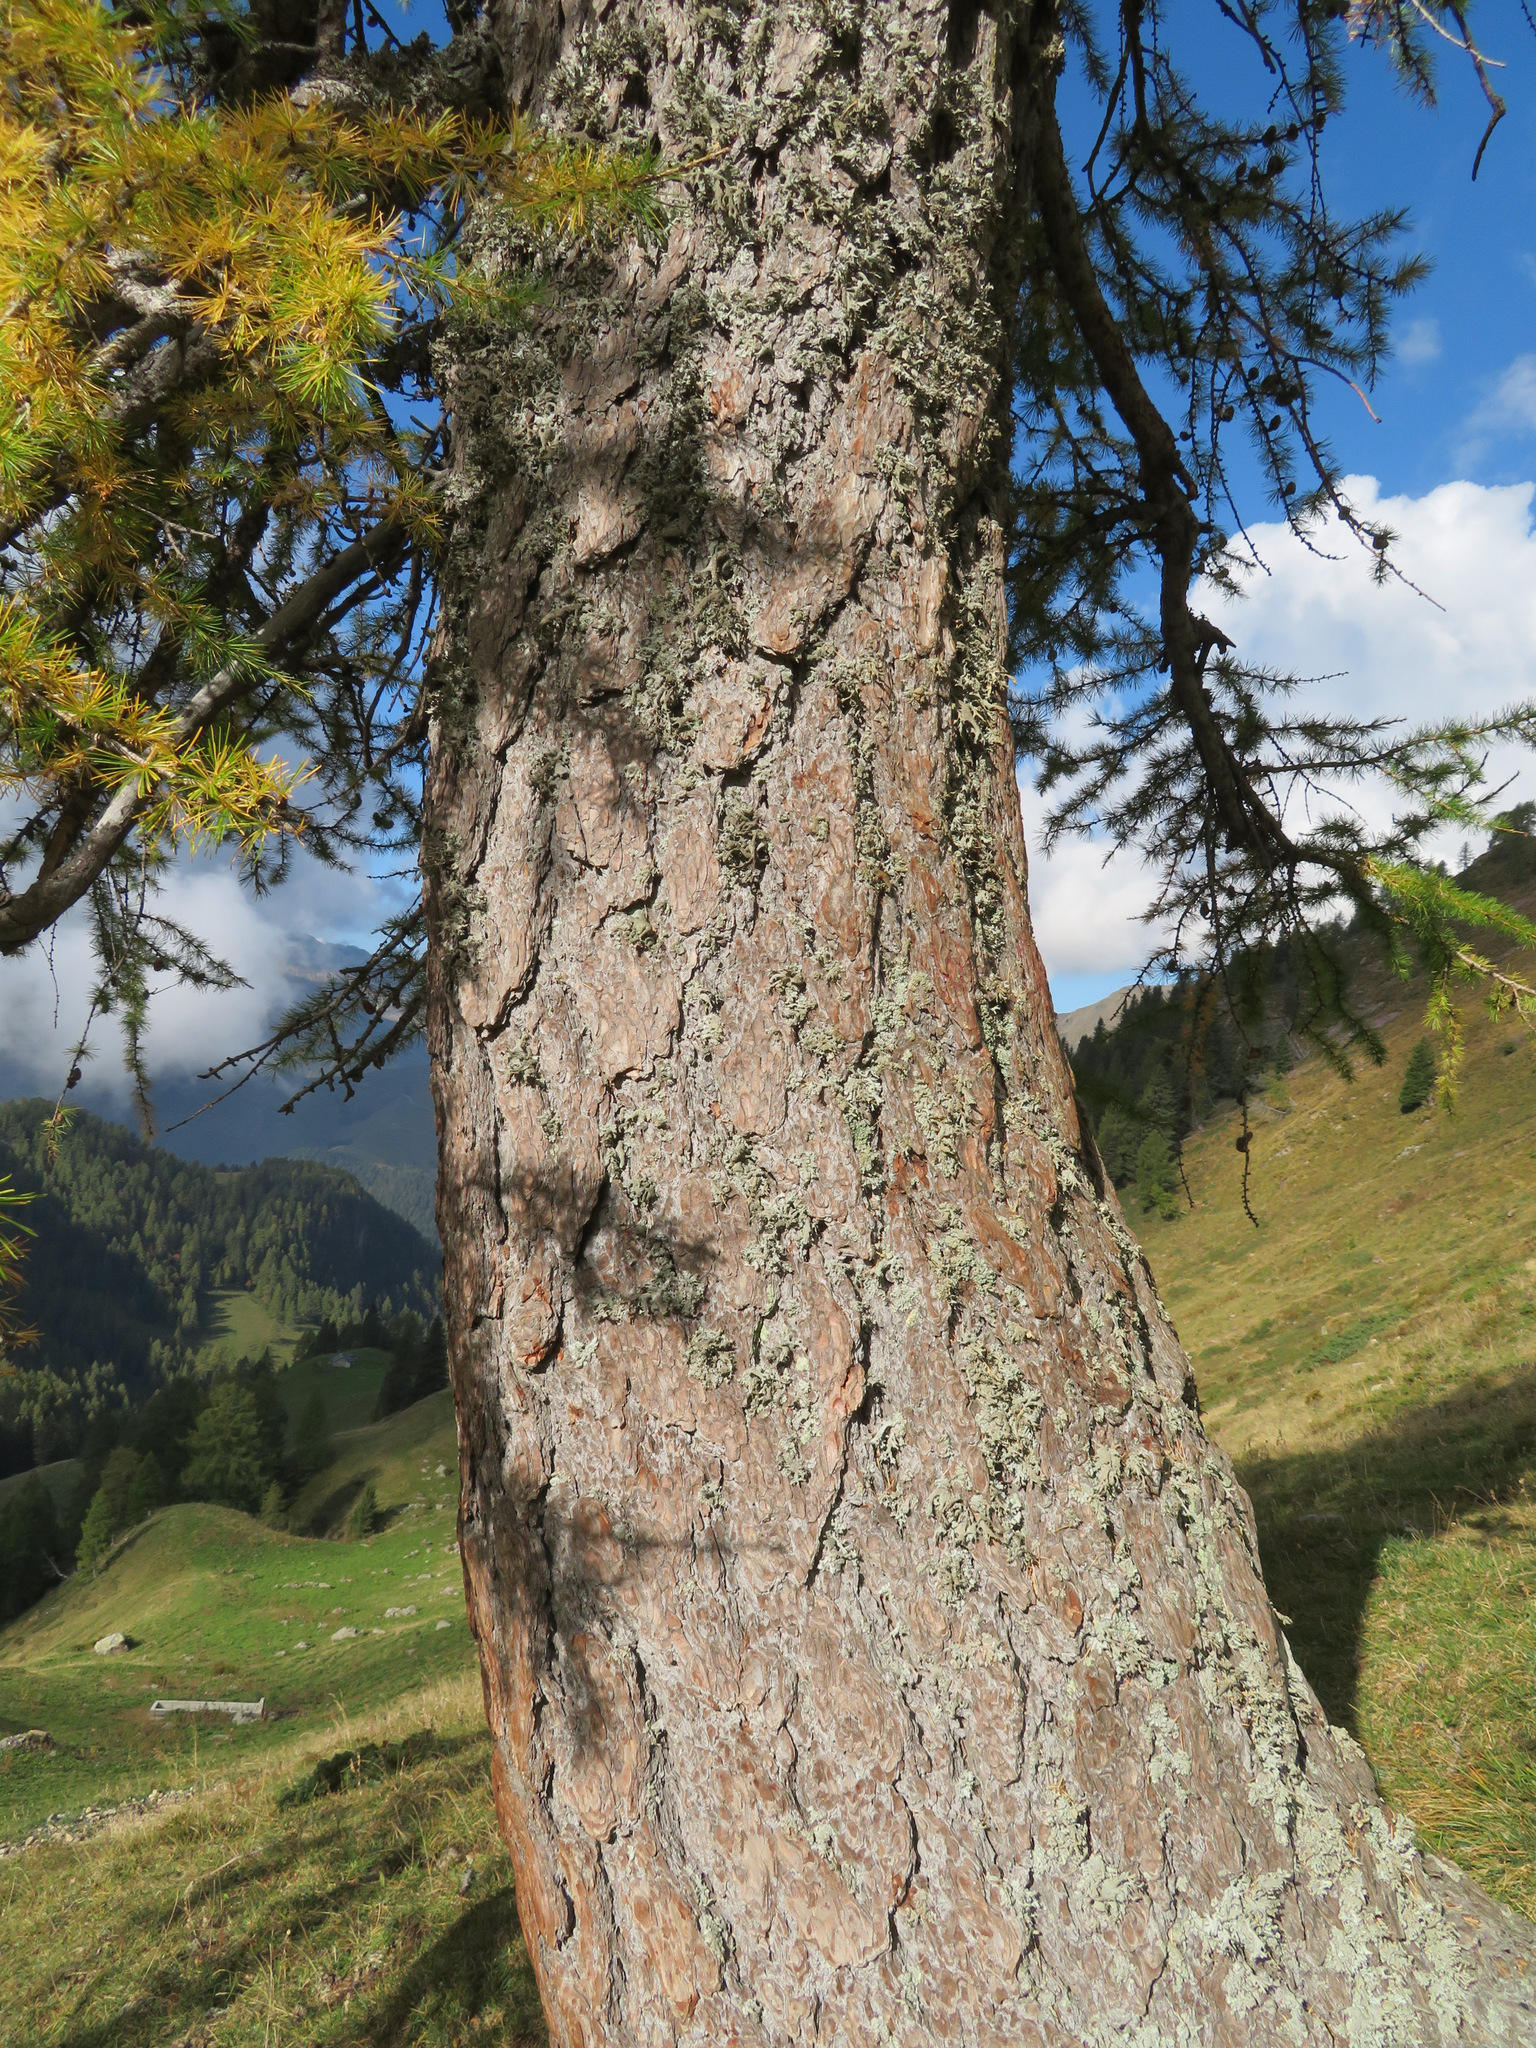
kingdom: Plantae
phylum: Tracheophyta
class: Pinopsida
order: Pinales
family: Pinaceae
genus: Larix
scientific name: Larix decidua
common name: European larch
